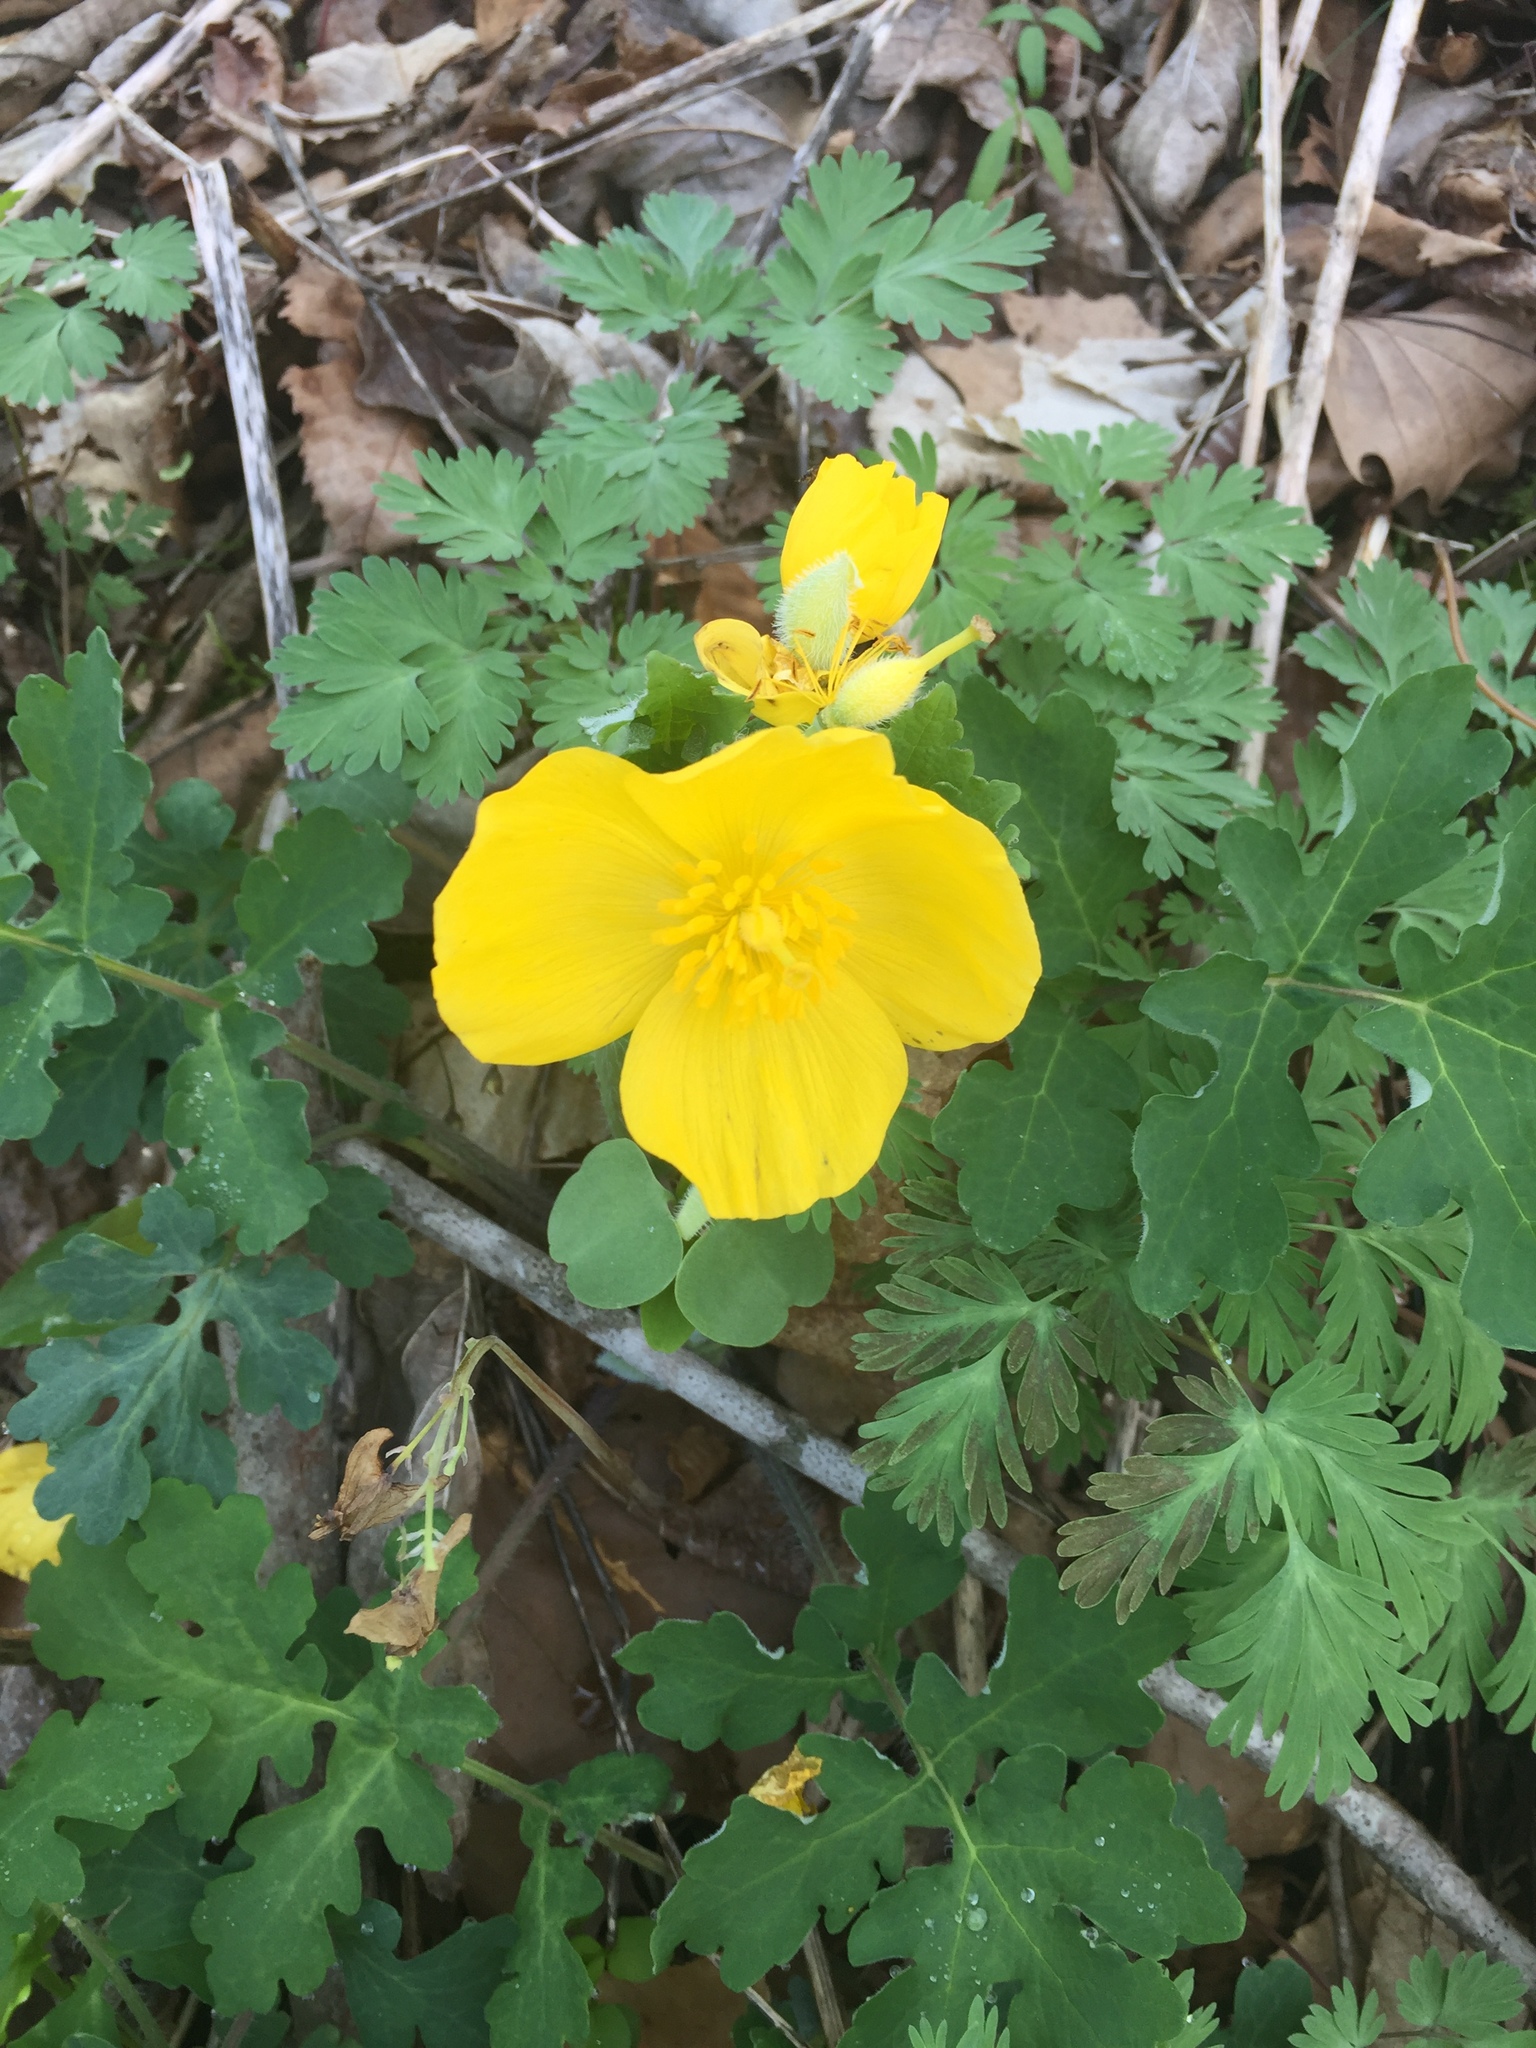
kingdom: Plantae
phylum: Tracheophyta
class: Magnoliopsida
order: Ranunculales
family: Papaveraceae
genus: Stylophorum
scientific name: Stylophorum diphyllum
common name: Celandine poppy
